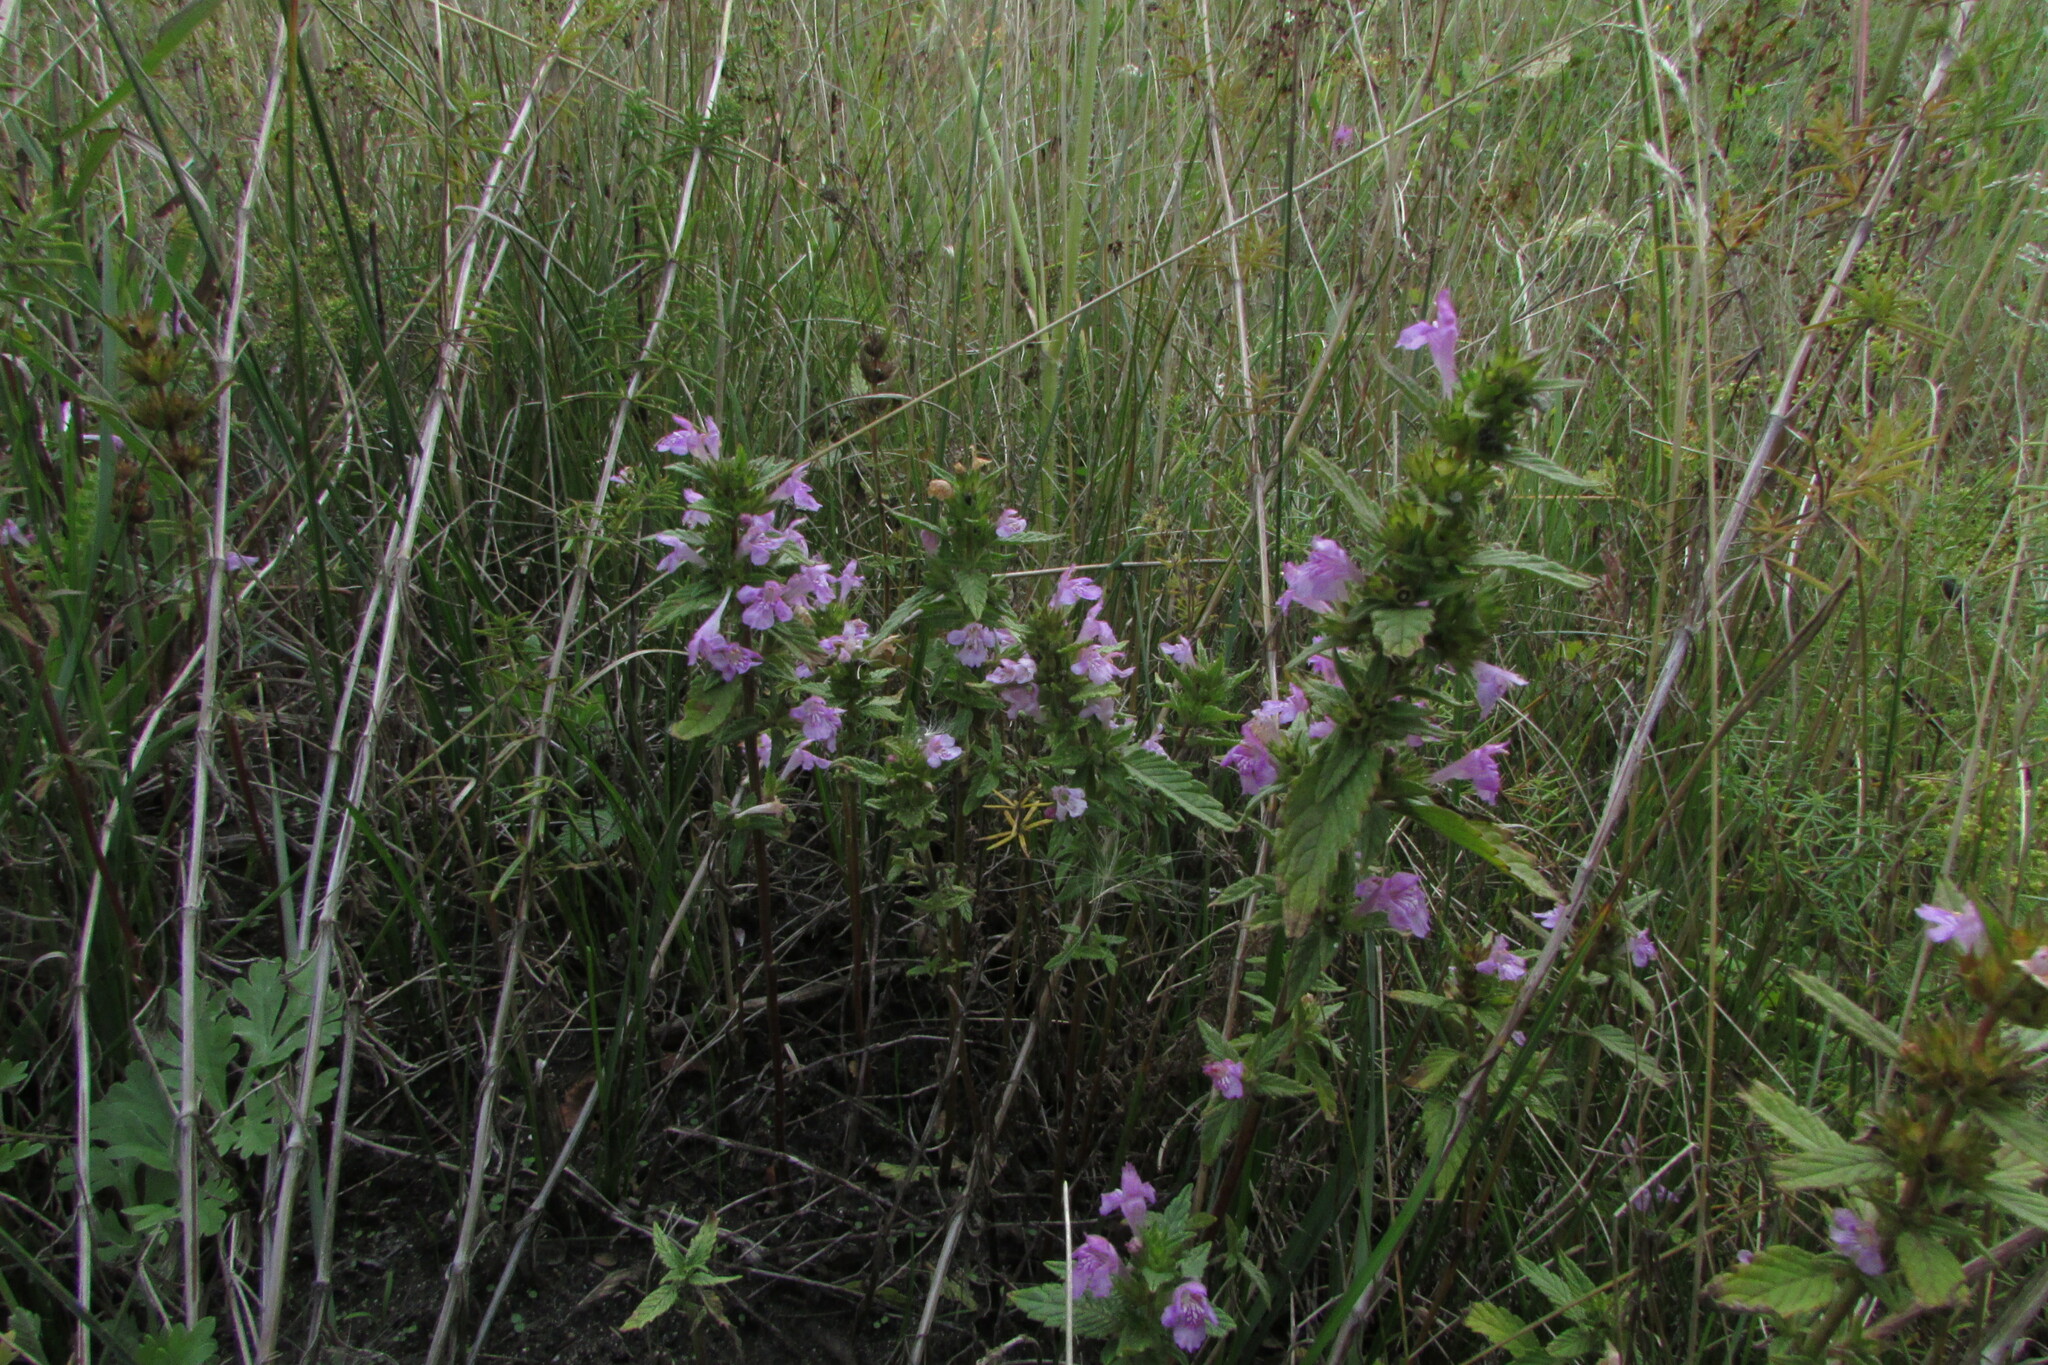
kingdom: Plantae
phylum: Tracheophyta
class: Magnoliopsida
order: Lamiales
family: Lamiaceae
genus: Galeopsis
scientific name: Galeopsis ladanum
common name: Broad-leaved hemp-nettle
